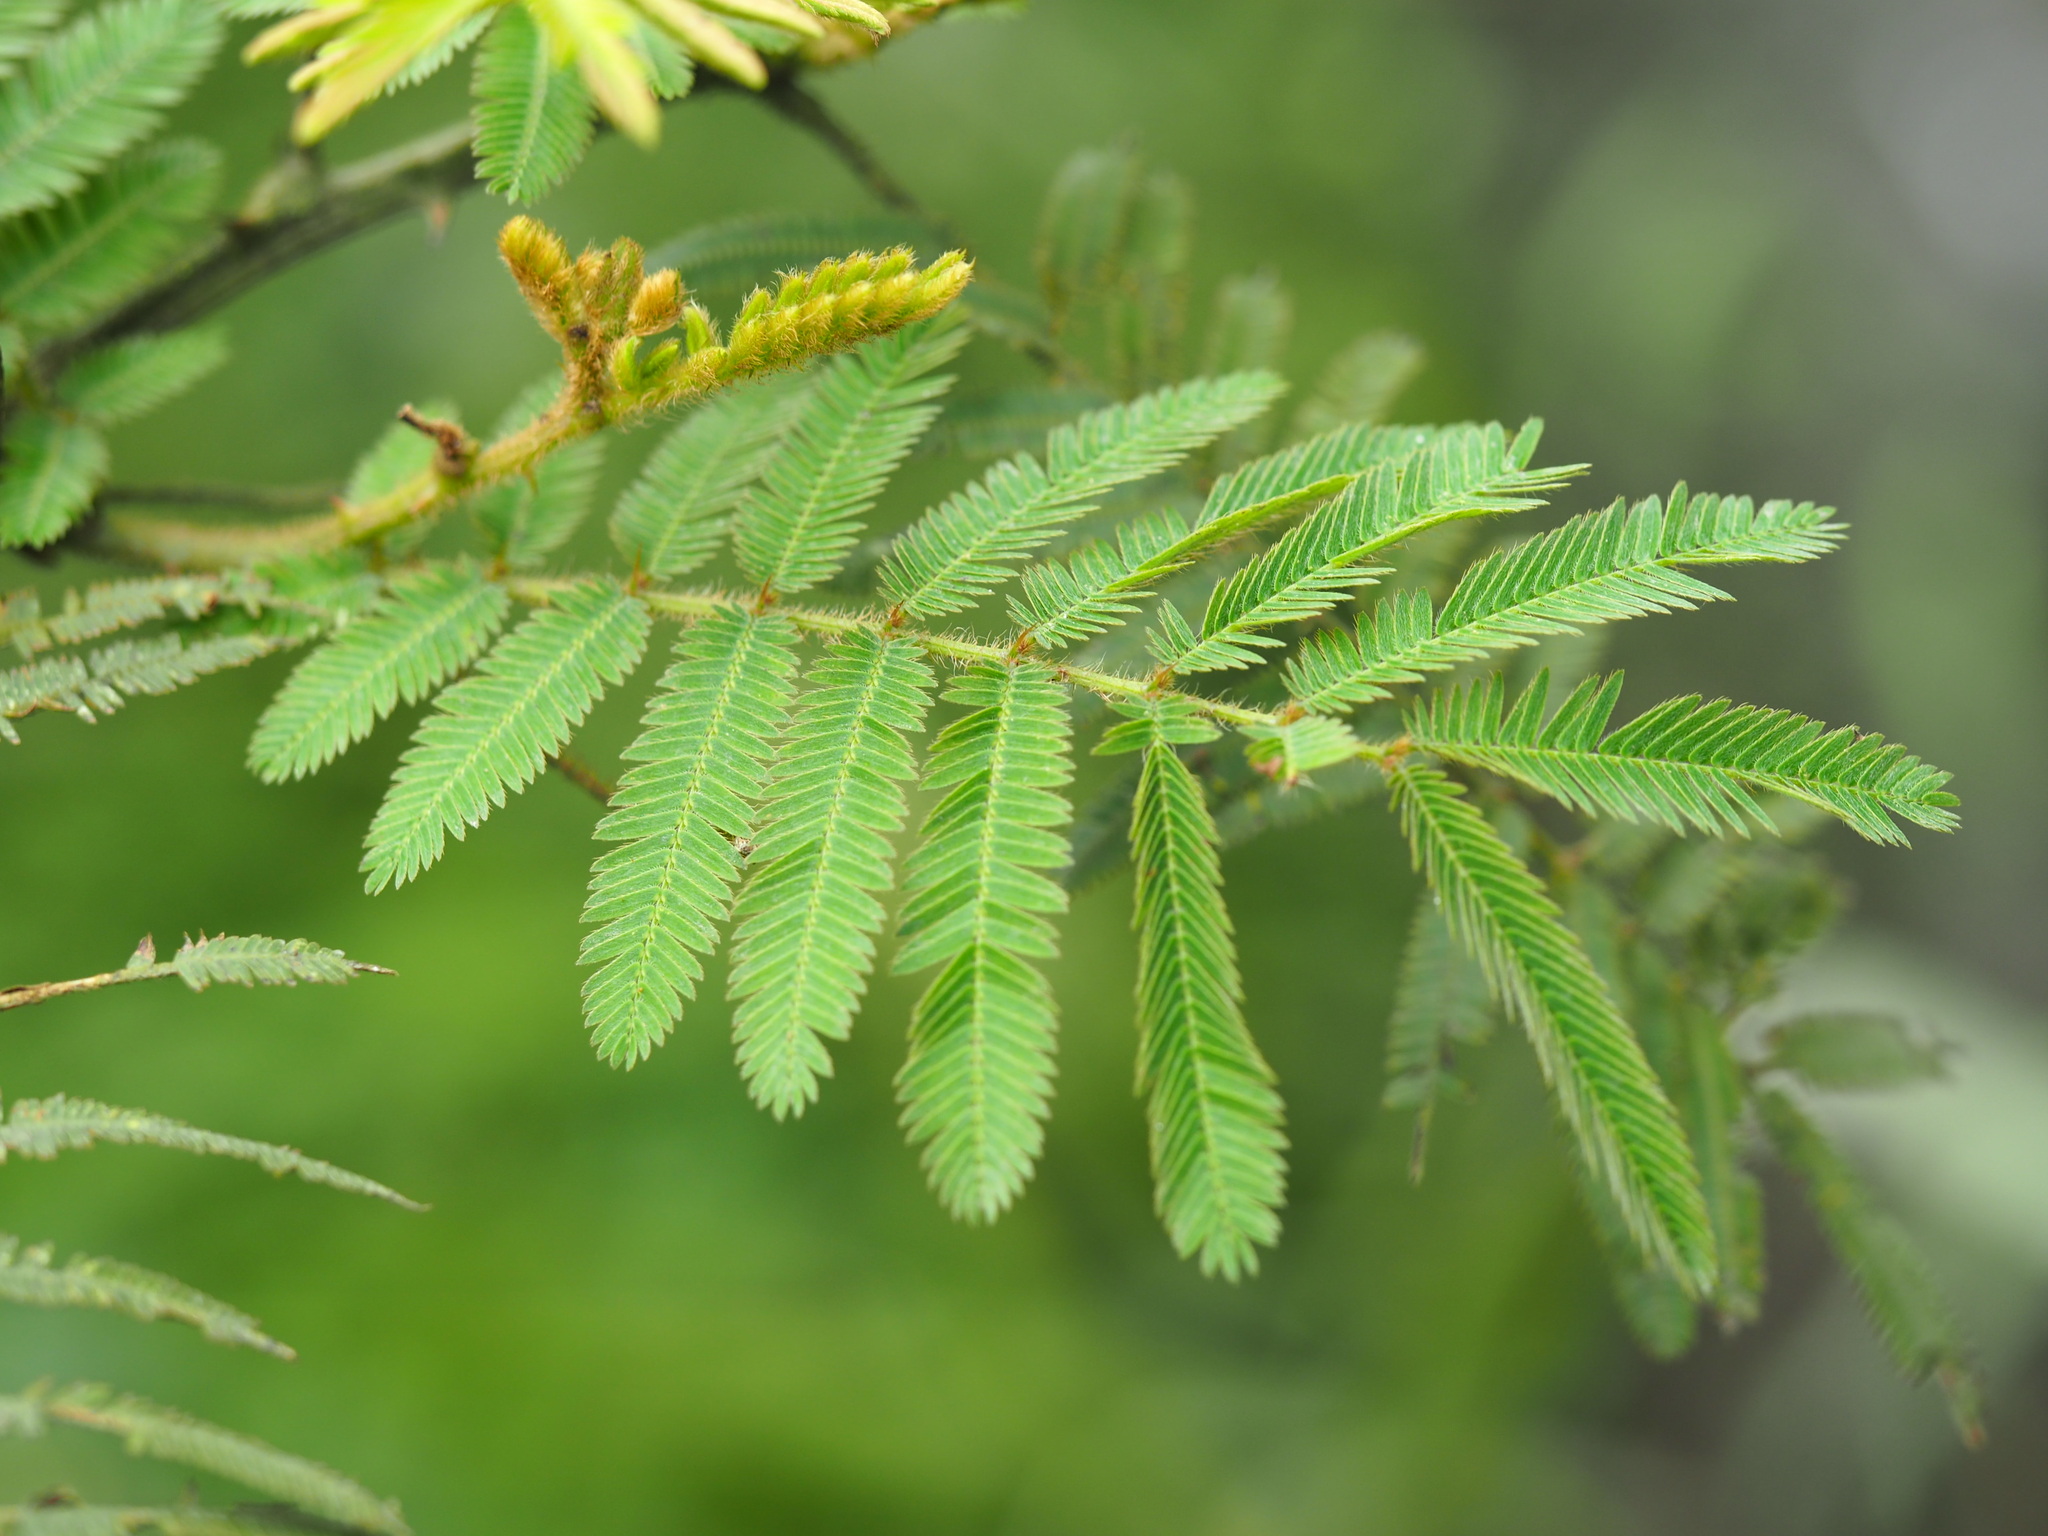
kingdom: Plantae
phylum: Tracheophyta
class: Magnoliopsida
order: Fabales
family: Fabaceae
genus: Mimosa
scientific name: Mimosa pigra
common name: Black mimosa
